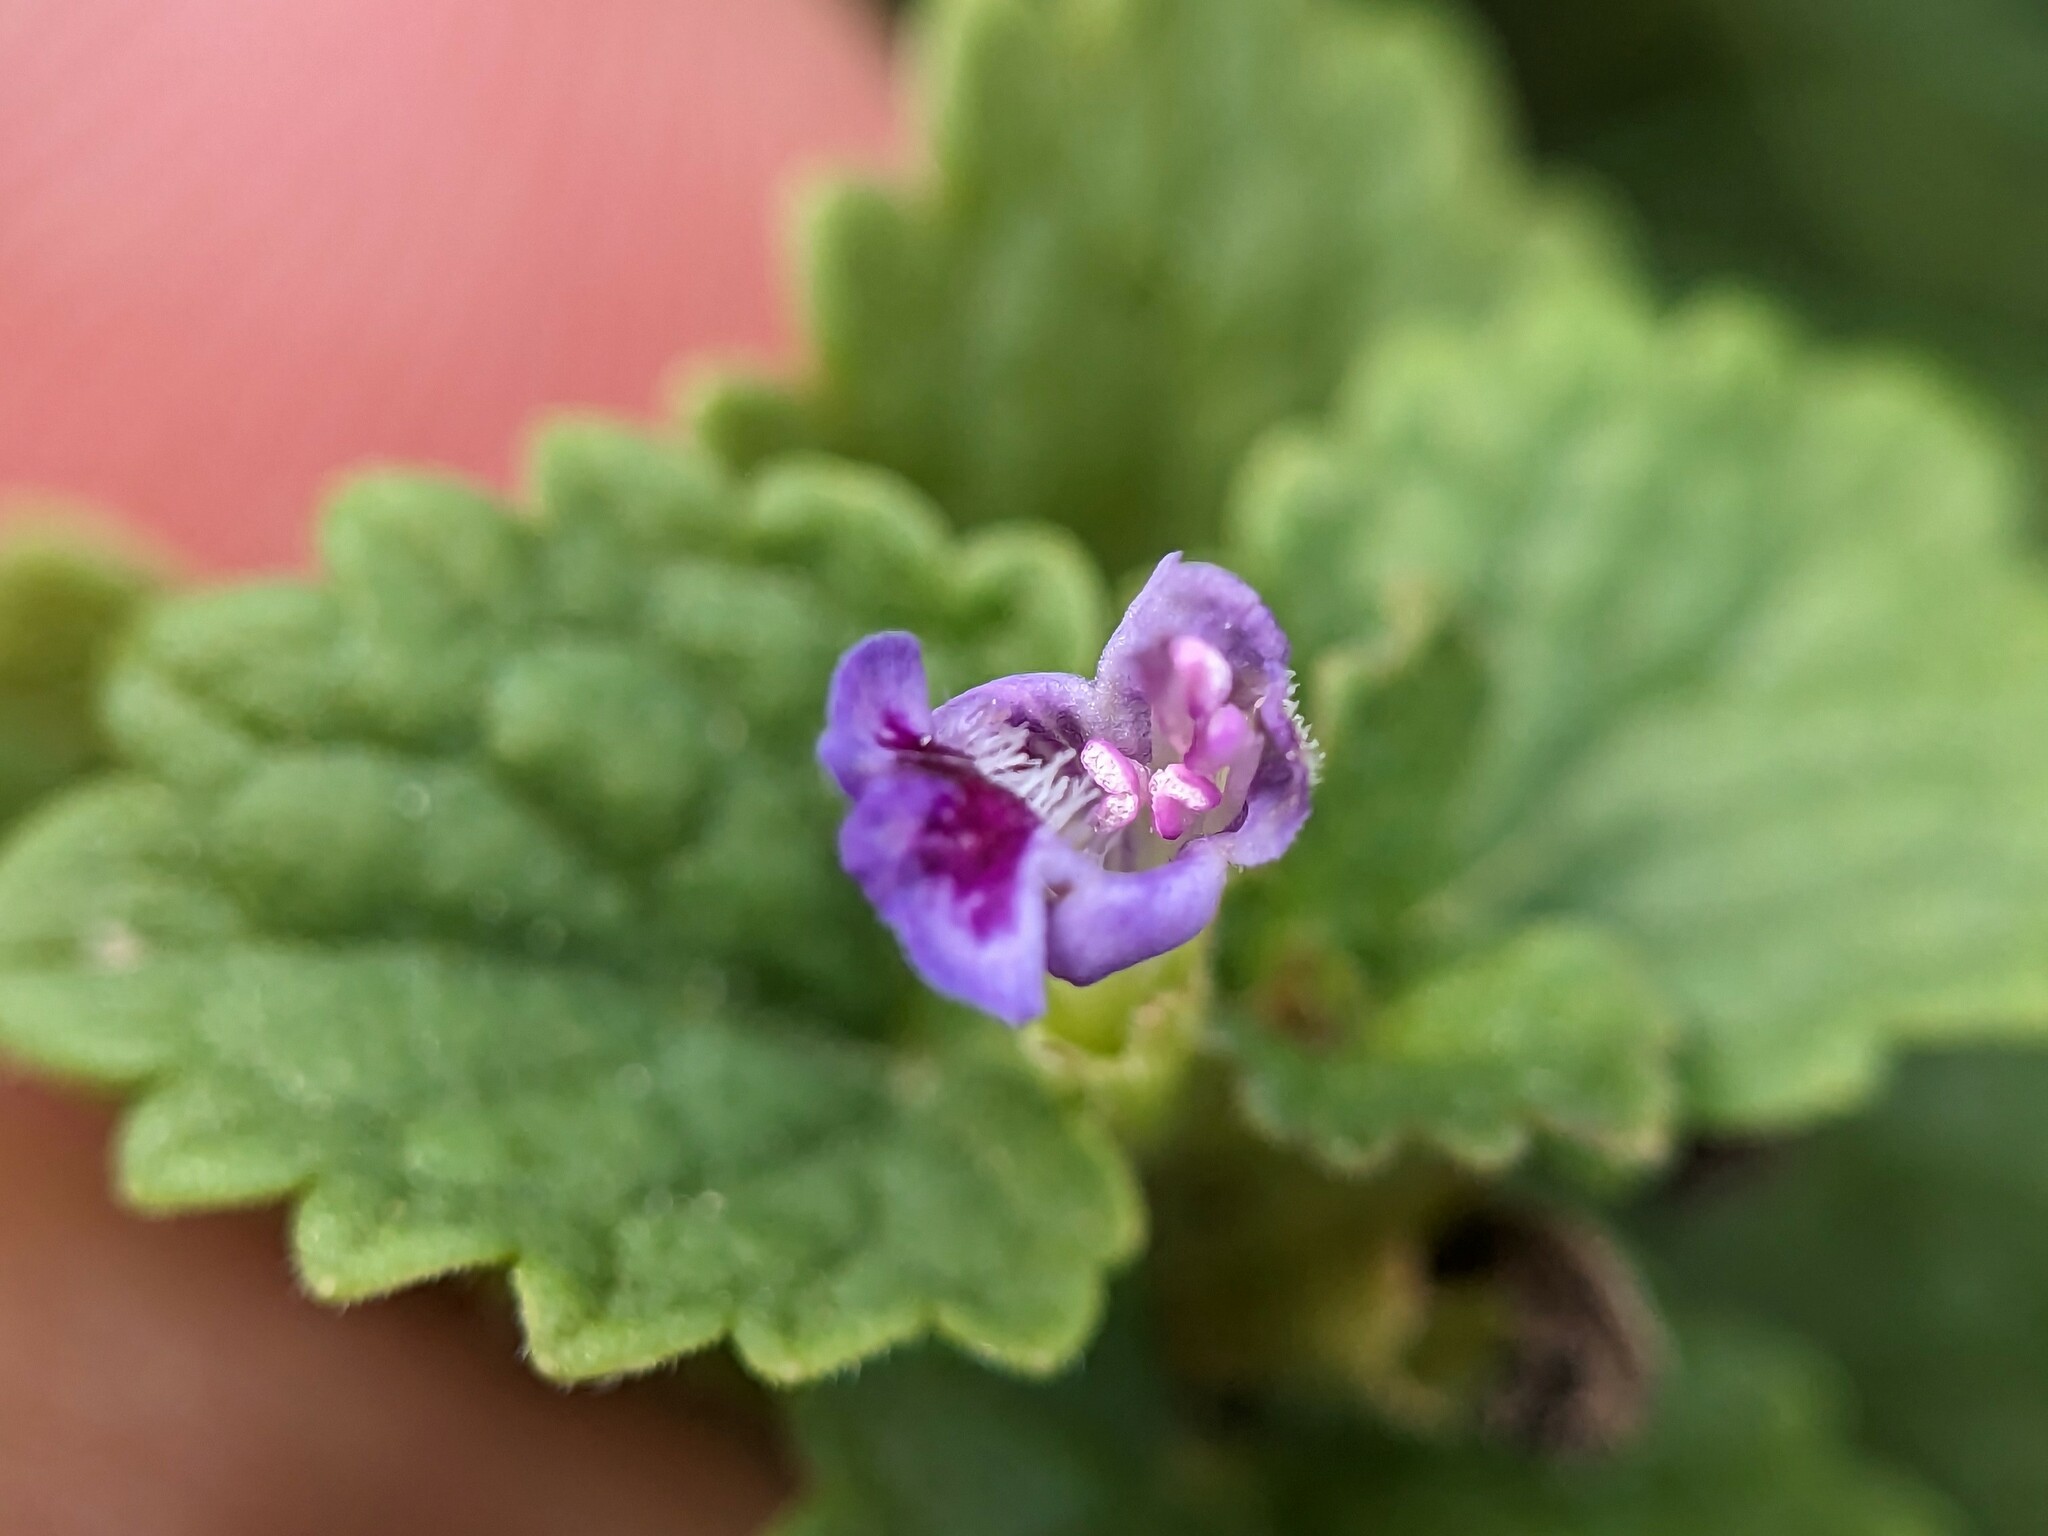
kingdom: Plantae
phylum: Tracheophyta
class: Magnoliopsida
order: Lamiales
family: Lamiaceae
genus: Glechoma
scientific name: Glechoma hederacea
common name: Ground ivy
